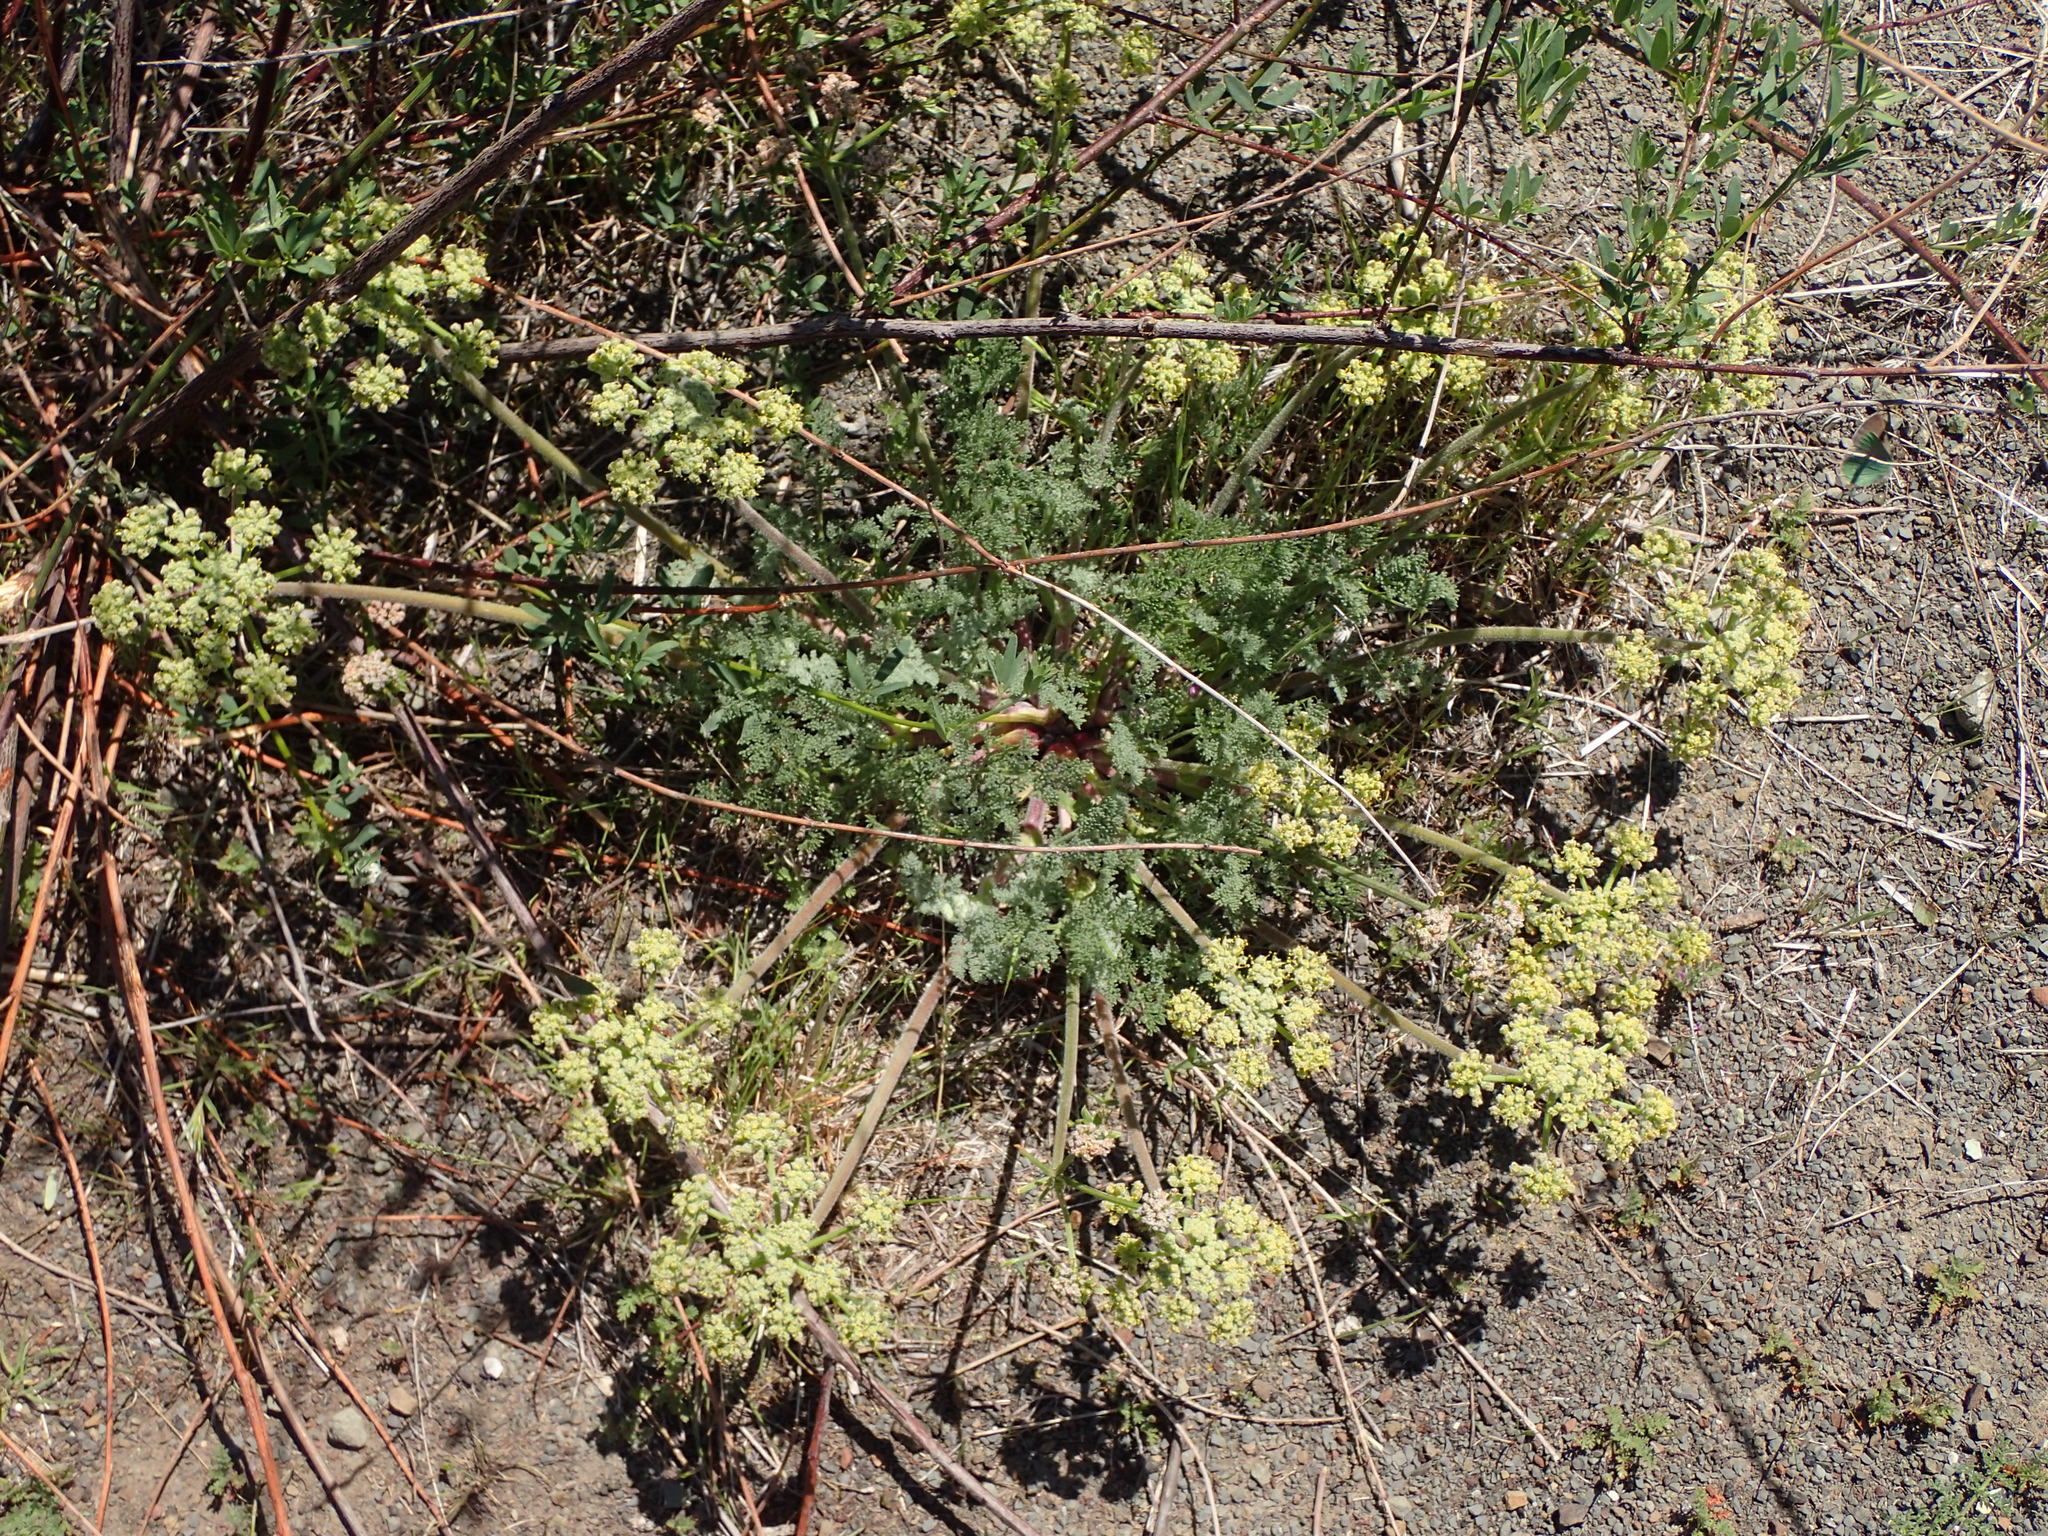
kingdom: Plantae
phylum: Tracheophyta
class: Magnoliopsida
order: Apiales
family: Apiaceae
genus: Lomatium
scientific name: Lomatium dasycarpum
